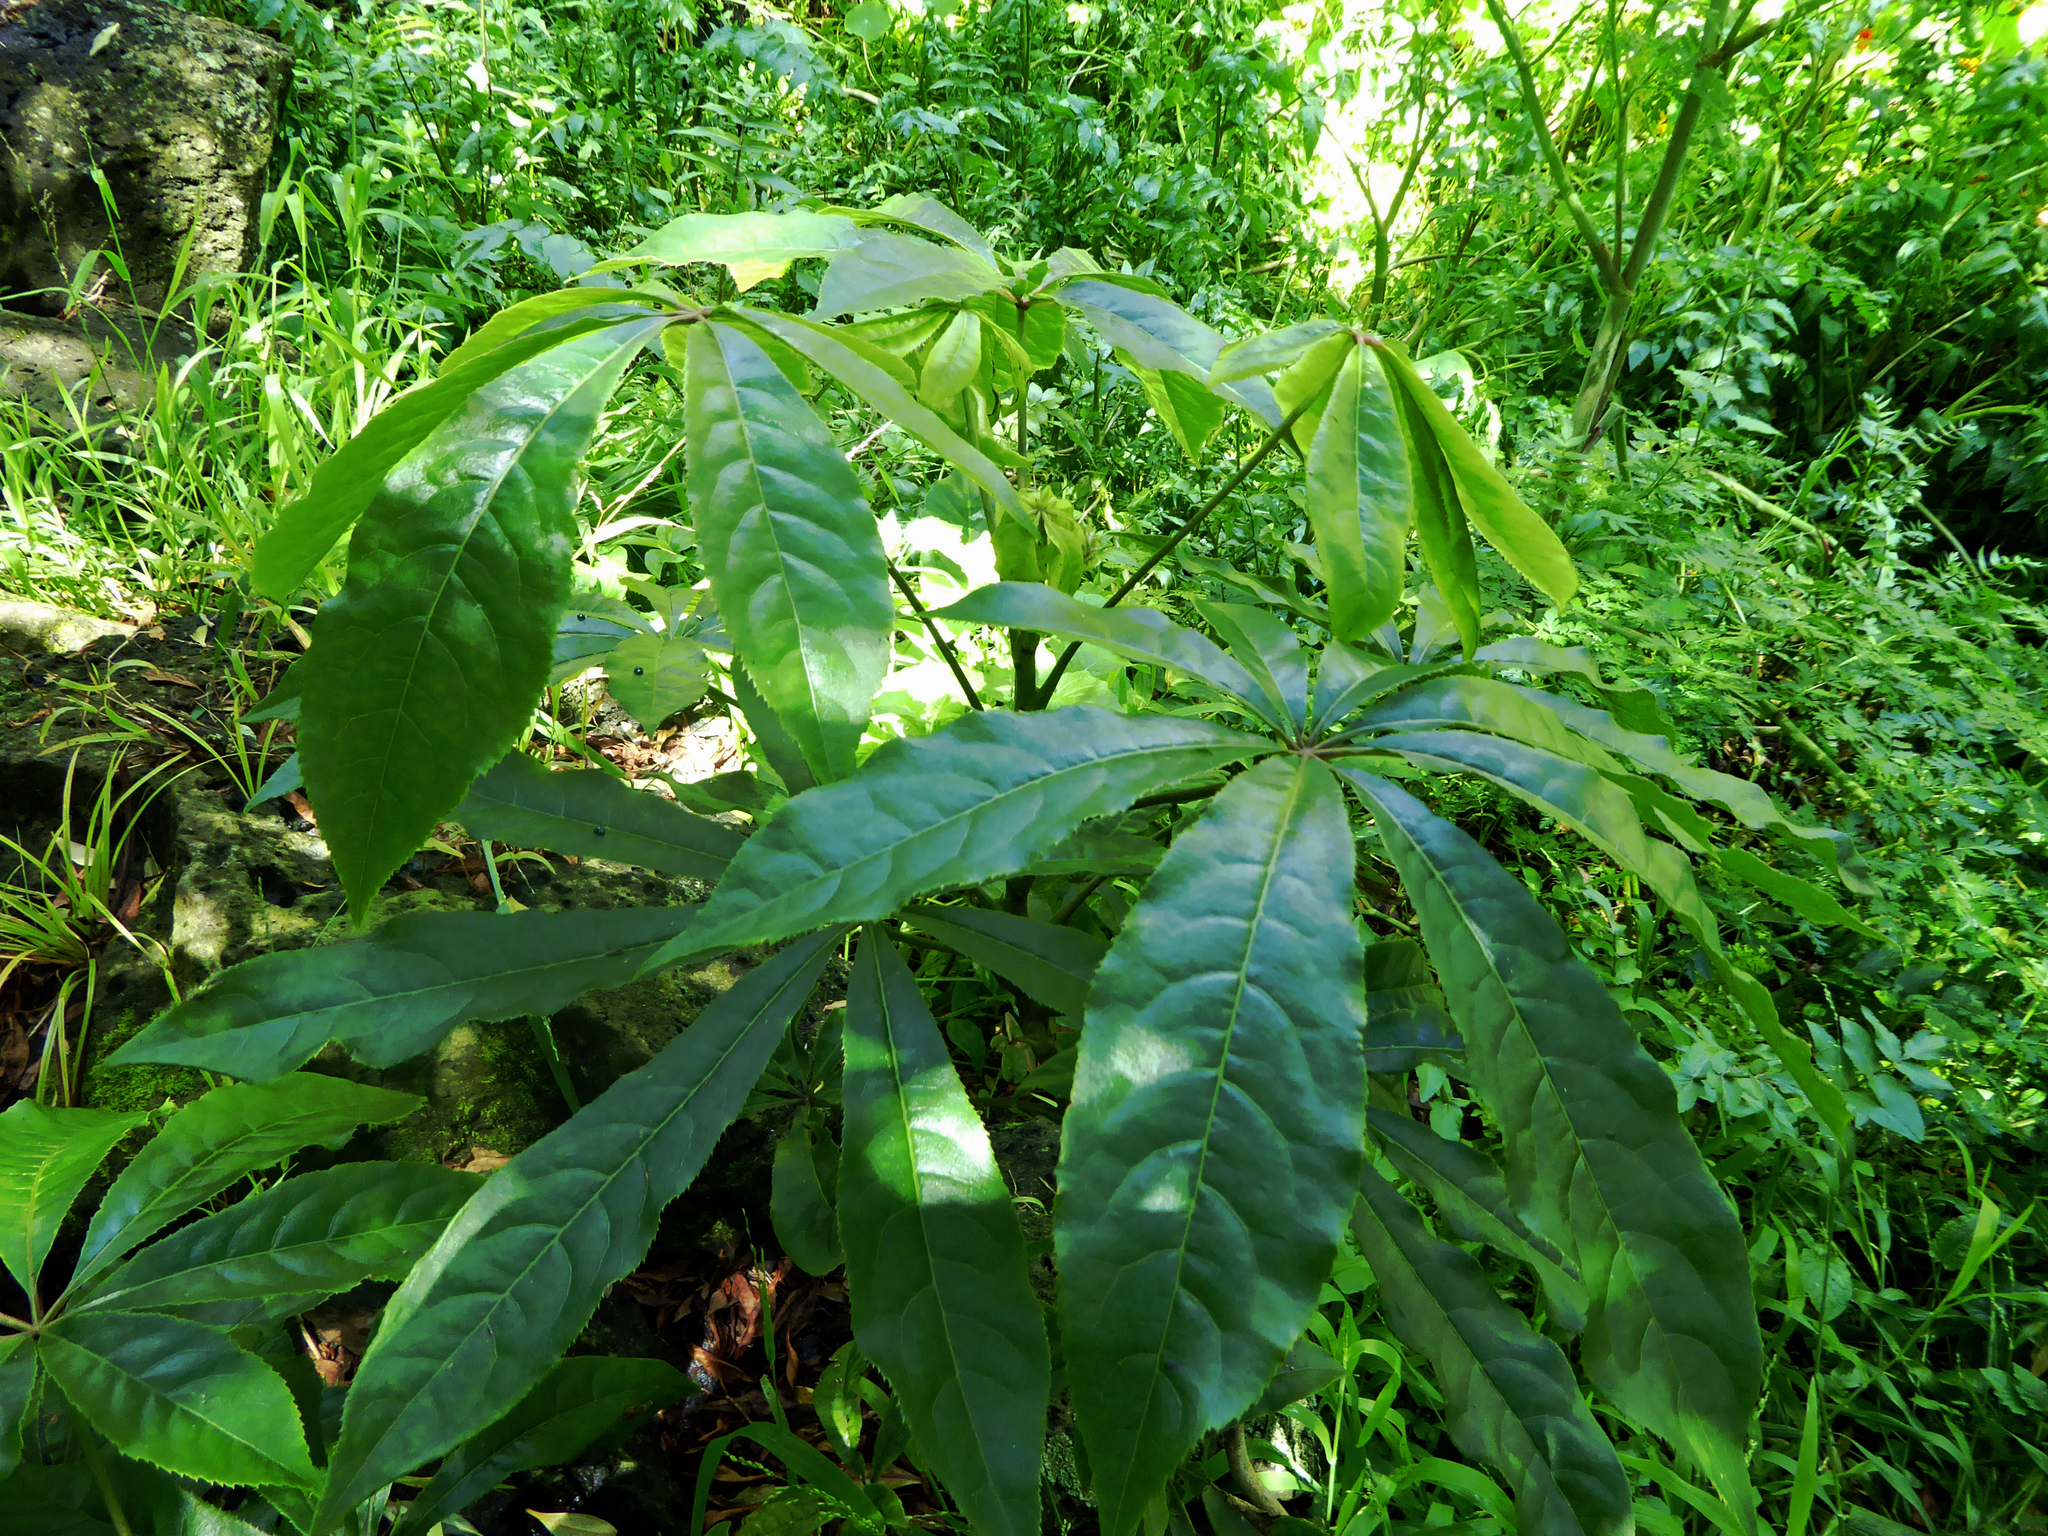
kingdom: Plantae
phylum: Tracheophyta
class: Magnoliopsida
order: Apiales
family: Araliaceae
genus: Schefflera
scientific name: Schefflera digitata
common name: Pate
